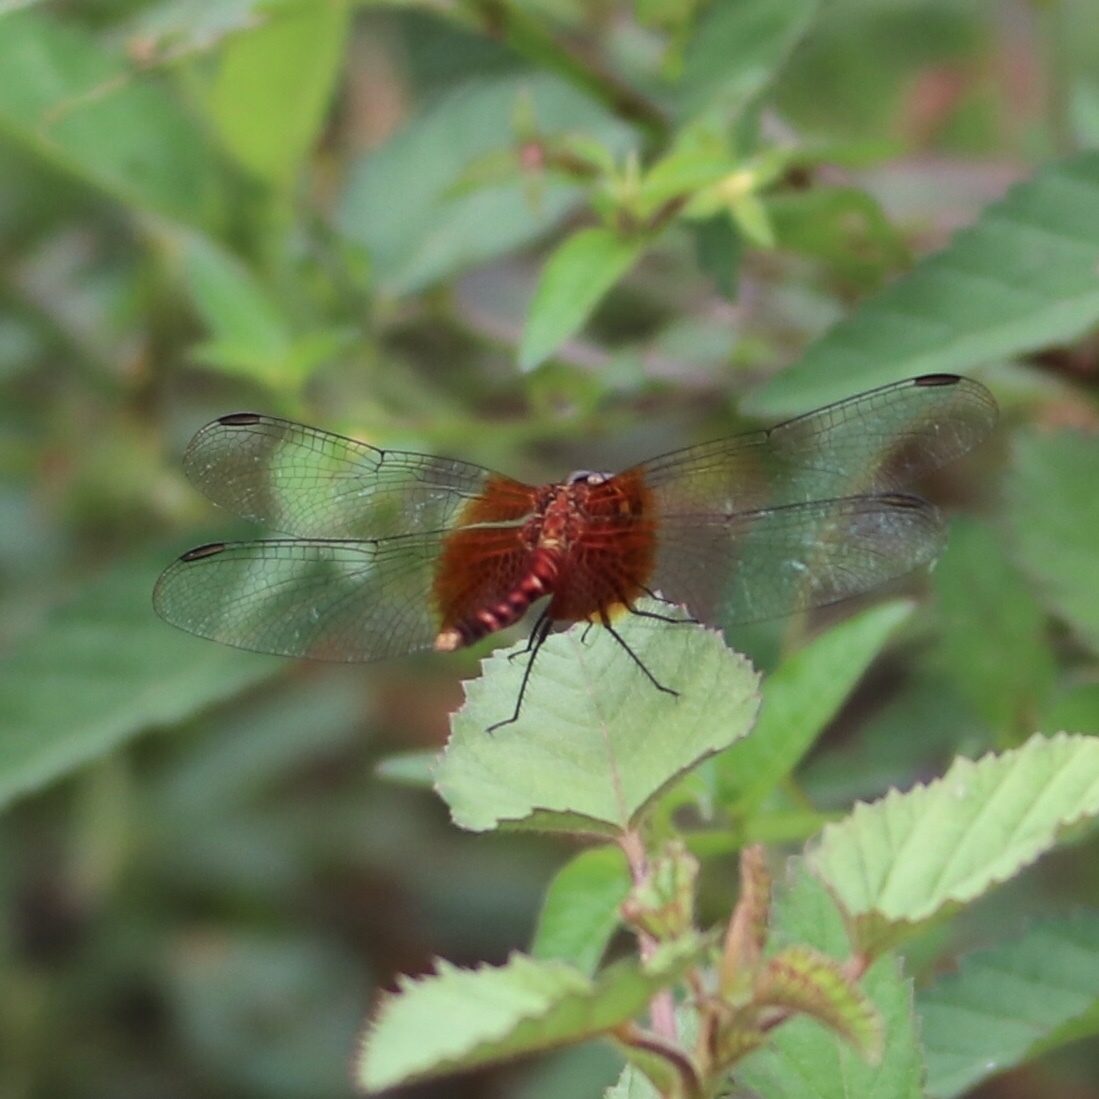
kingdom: Animalia
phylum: Arthropoda
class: Insecta
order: Odonata
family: Libellulidae
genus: Erythrodiplax
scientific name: Erythrodiplax fervida
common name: Red-mantled dragonlet
